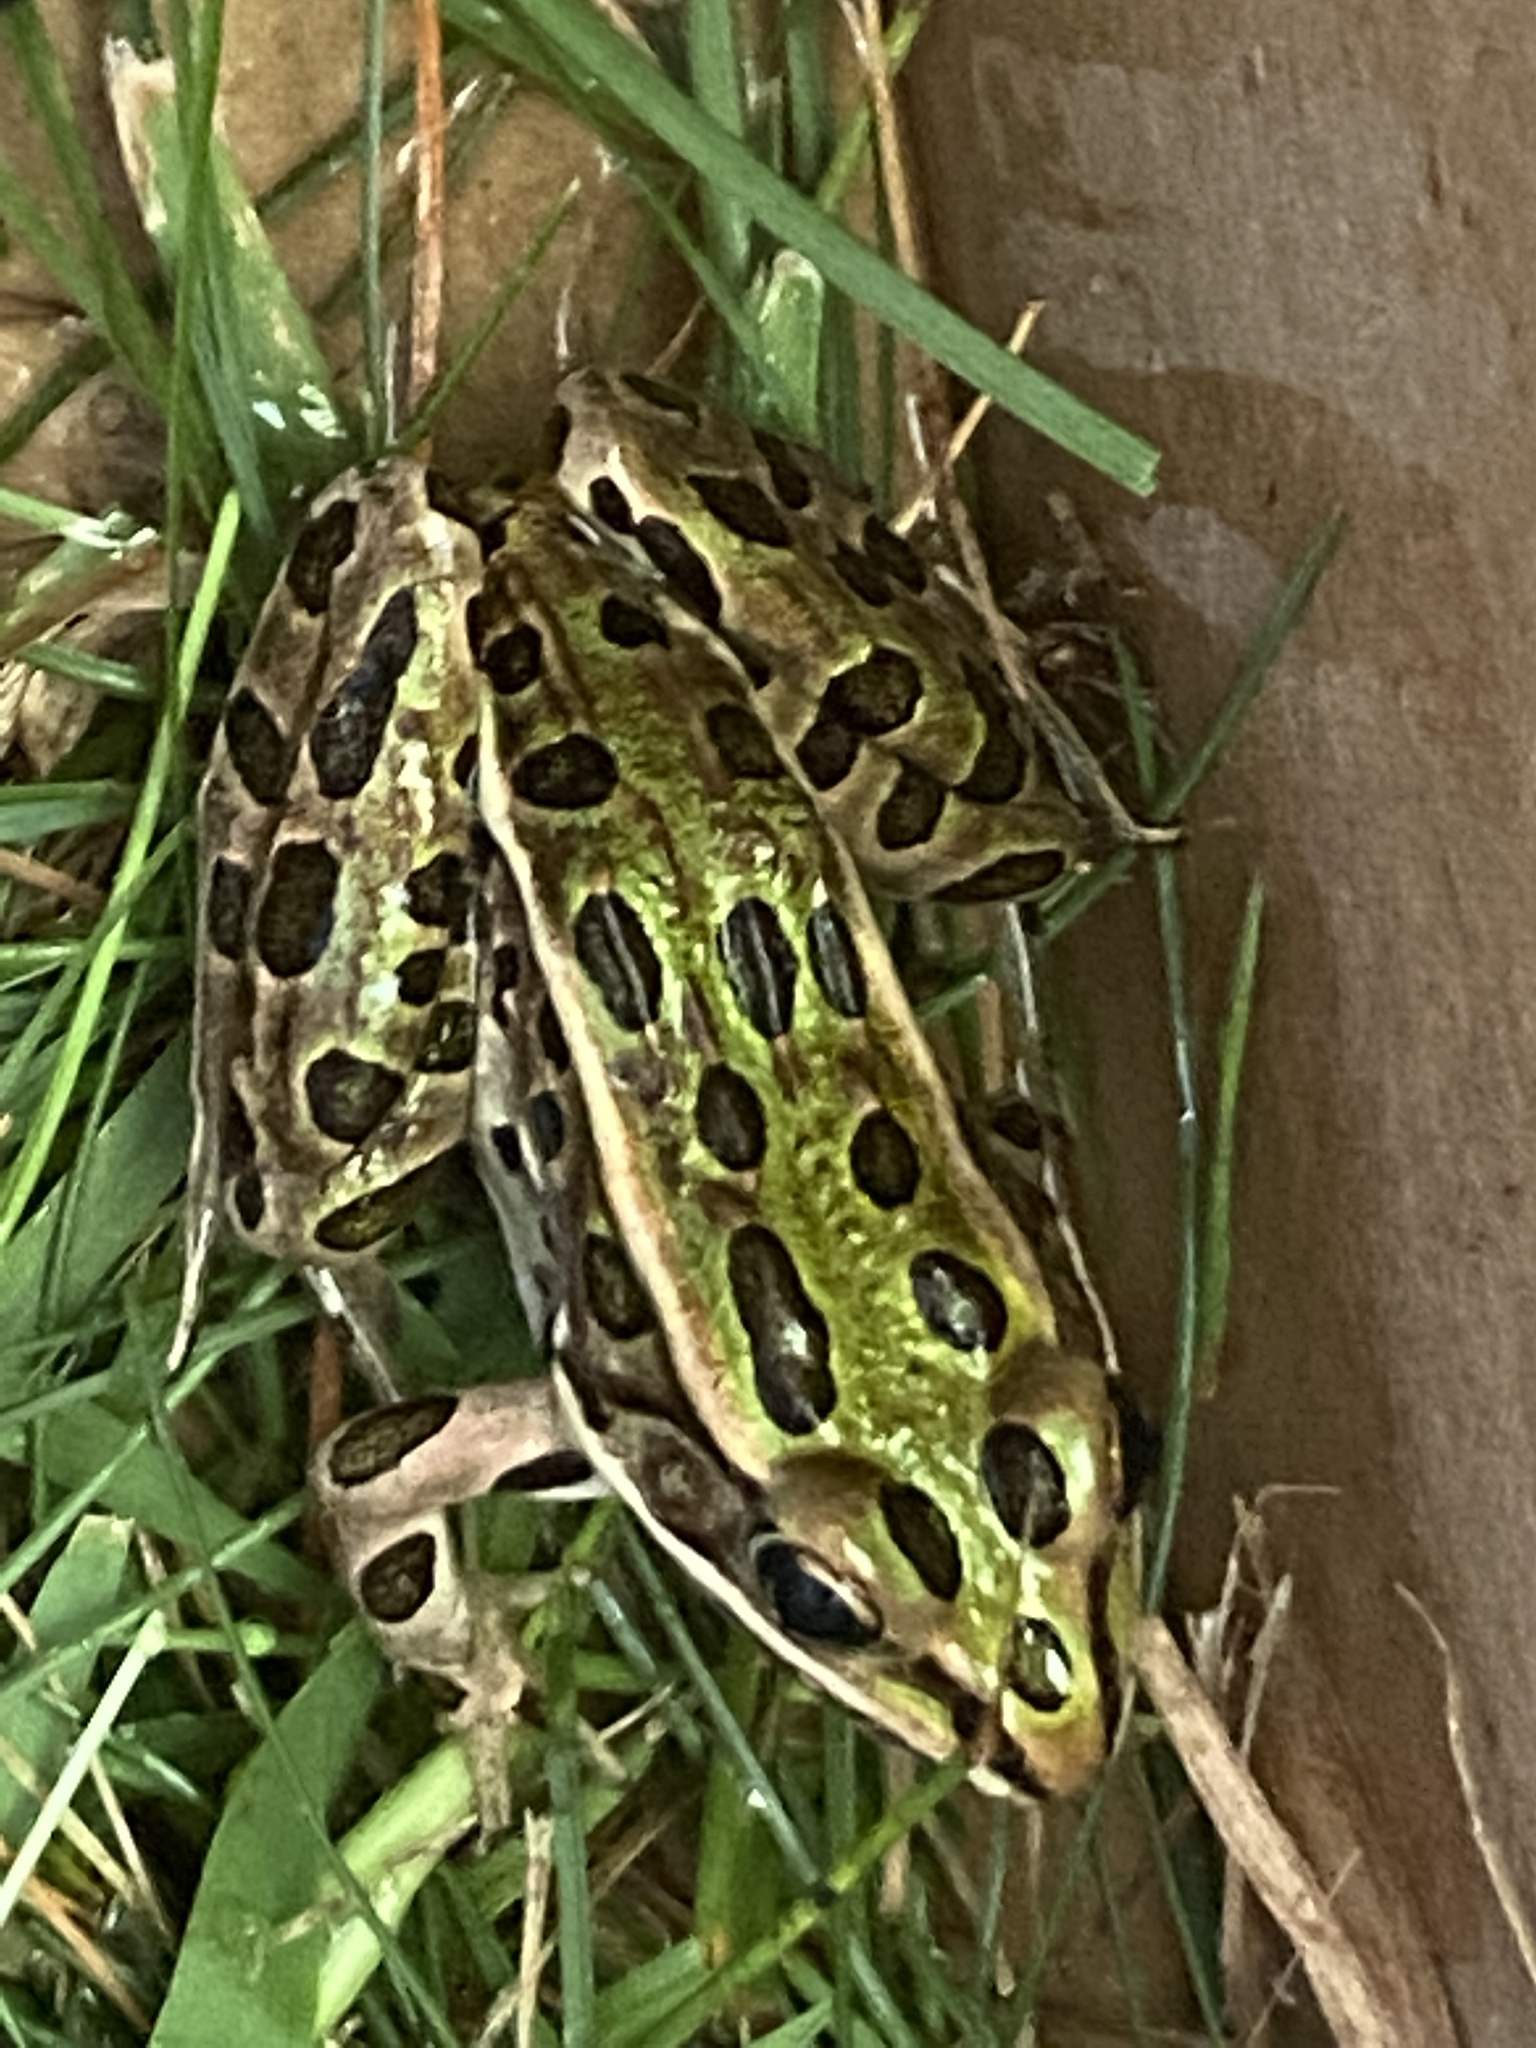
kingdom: Animalia
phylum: Chordata
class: Amphibia
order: Anura
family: Ranidae
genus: Lithobates
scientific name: Lithobates pipiens
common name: Northern leopard frog
